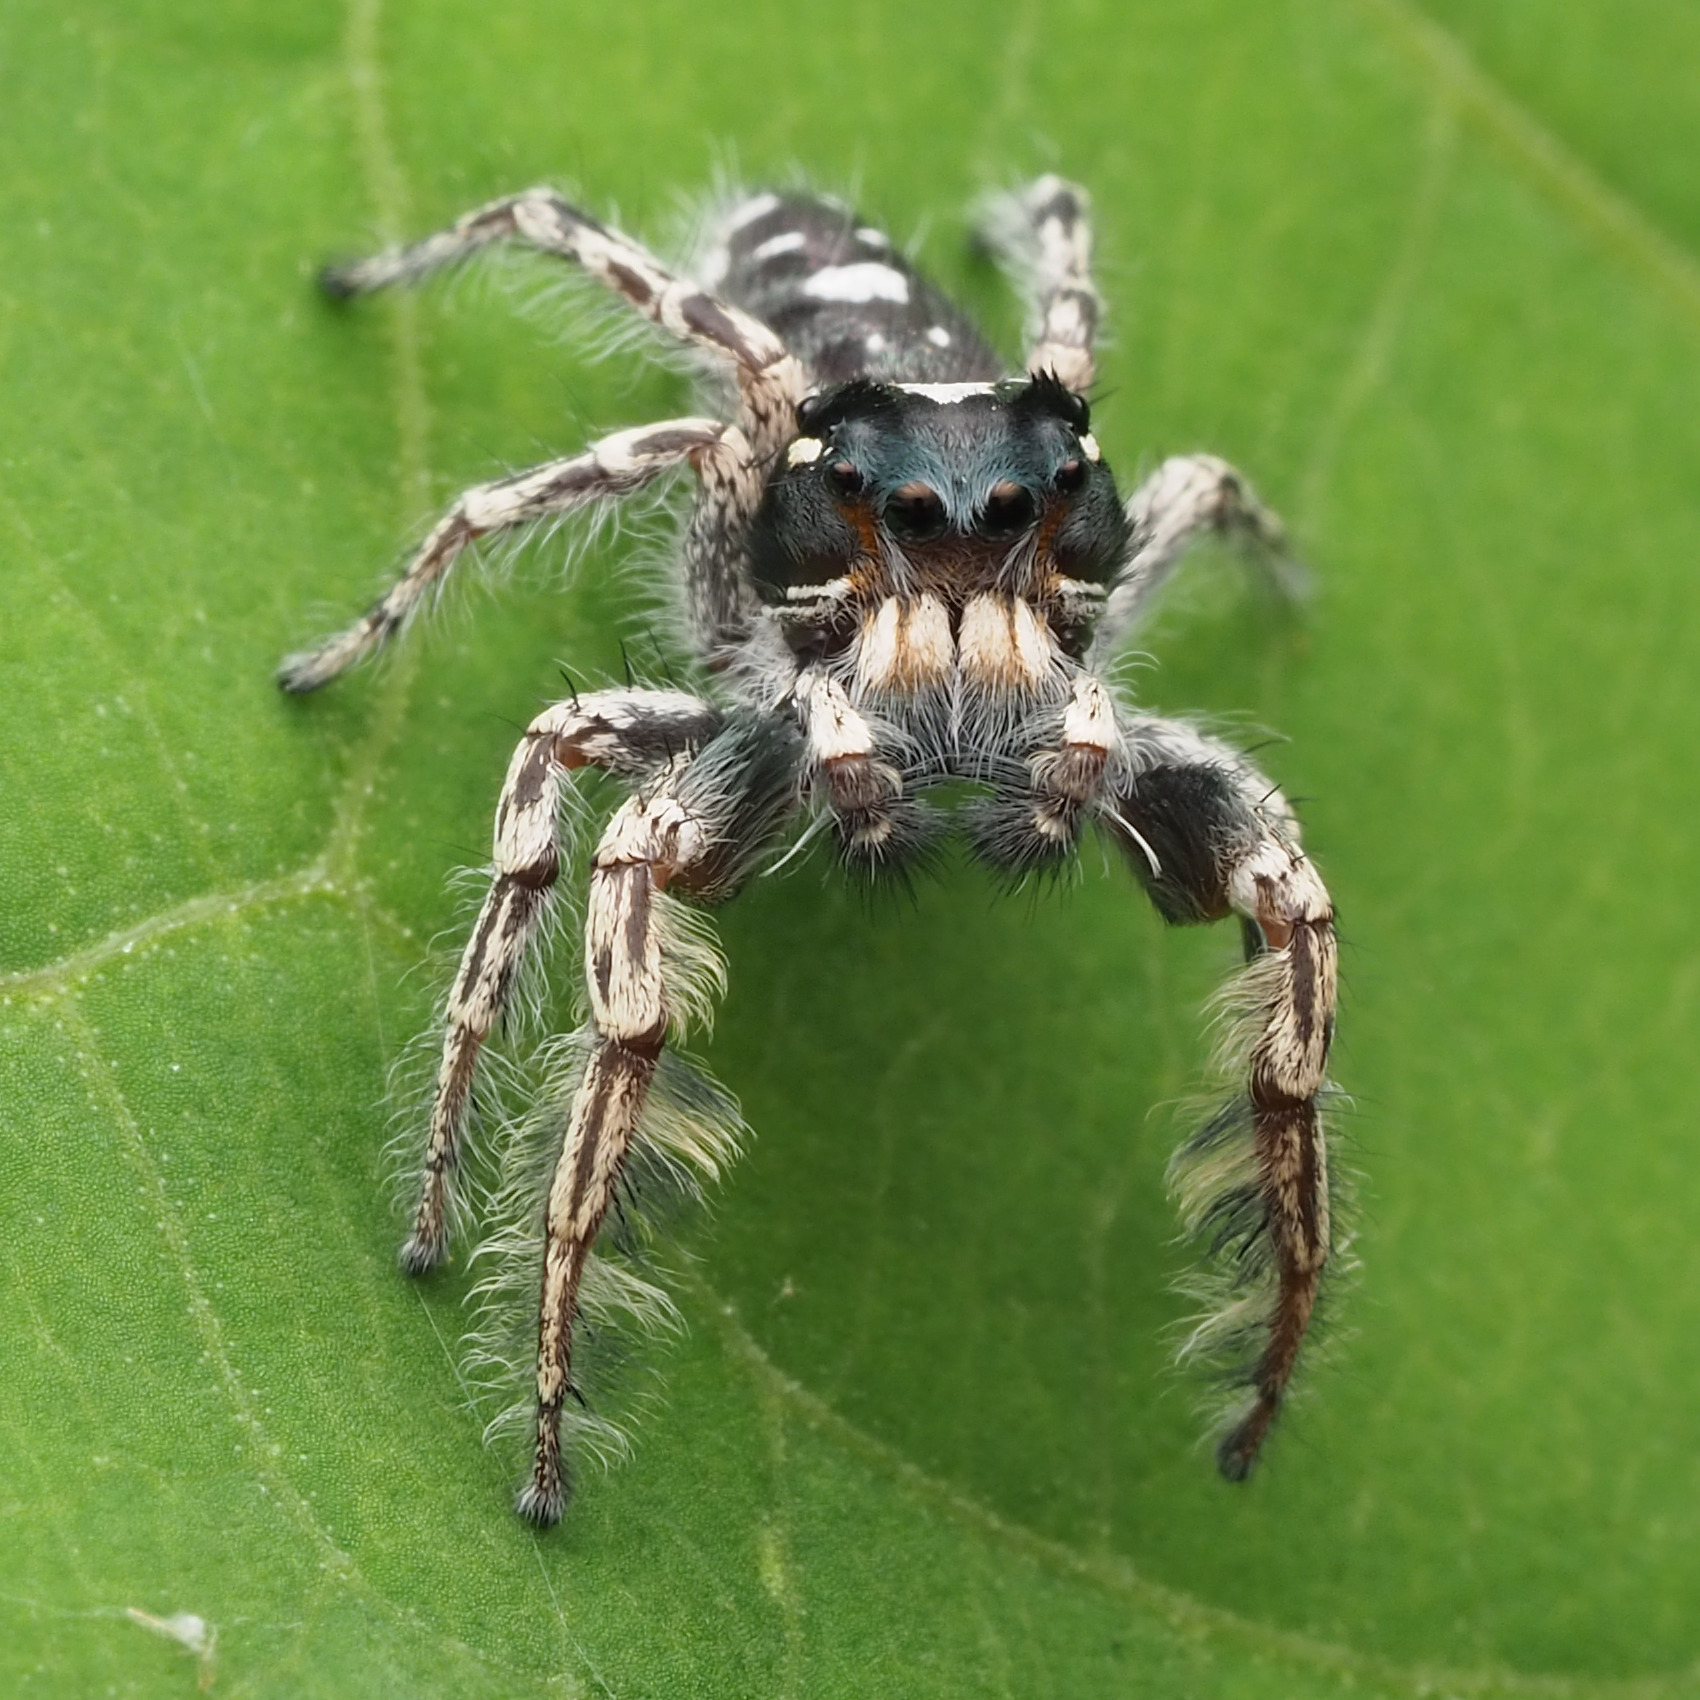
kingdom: Animalia
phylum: Arthropoda
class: Arachnida
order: Araneae
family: Salticidae
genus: Phidippus
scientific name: Phidippus putnami
